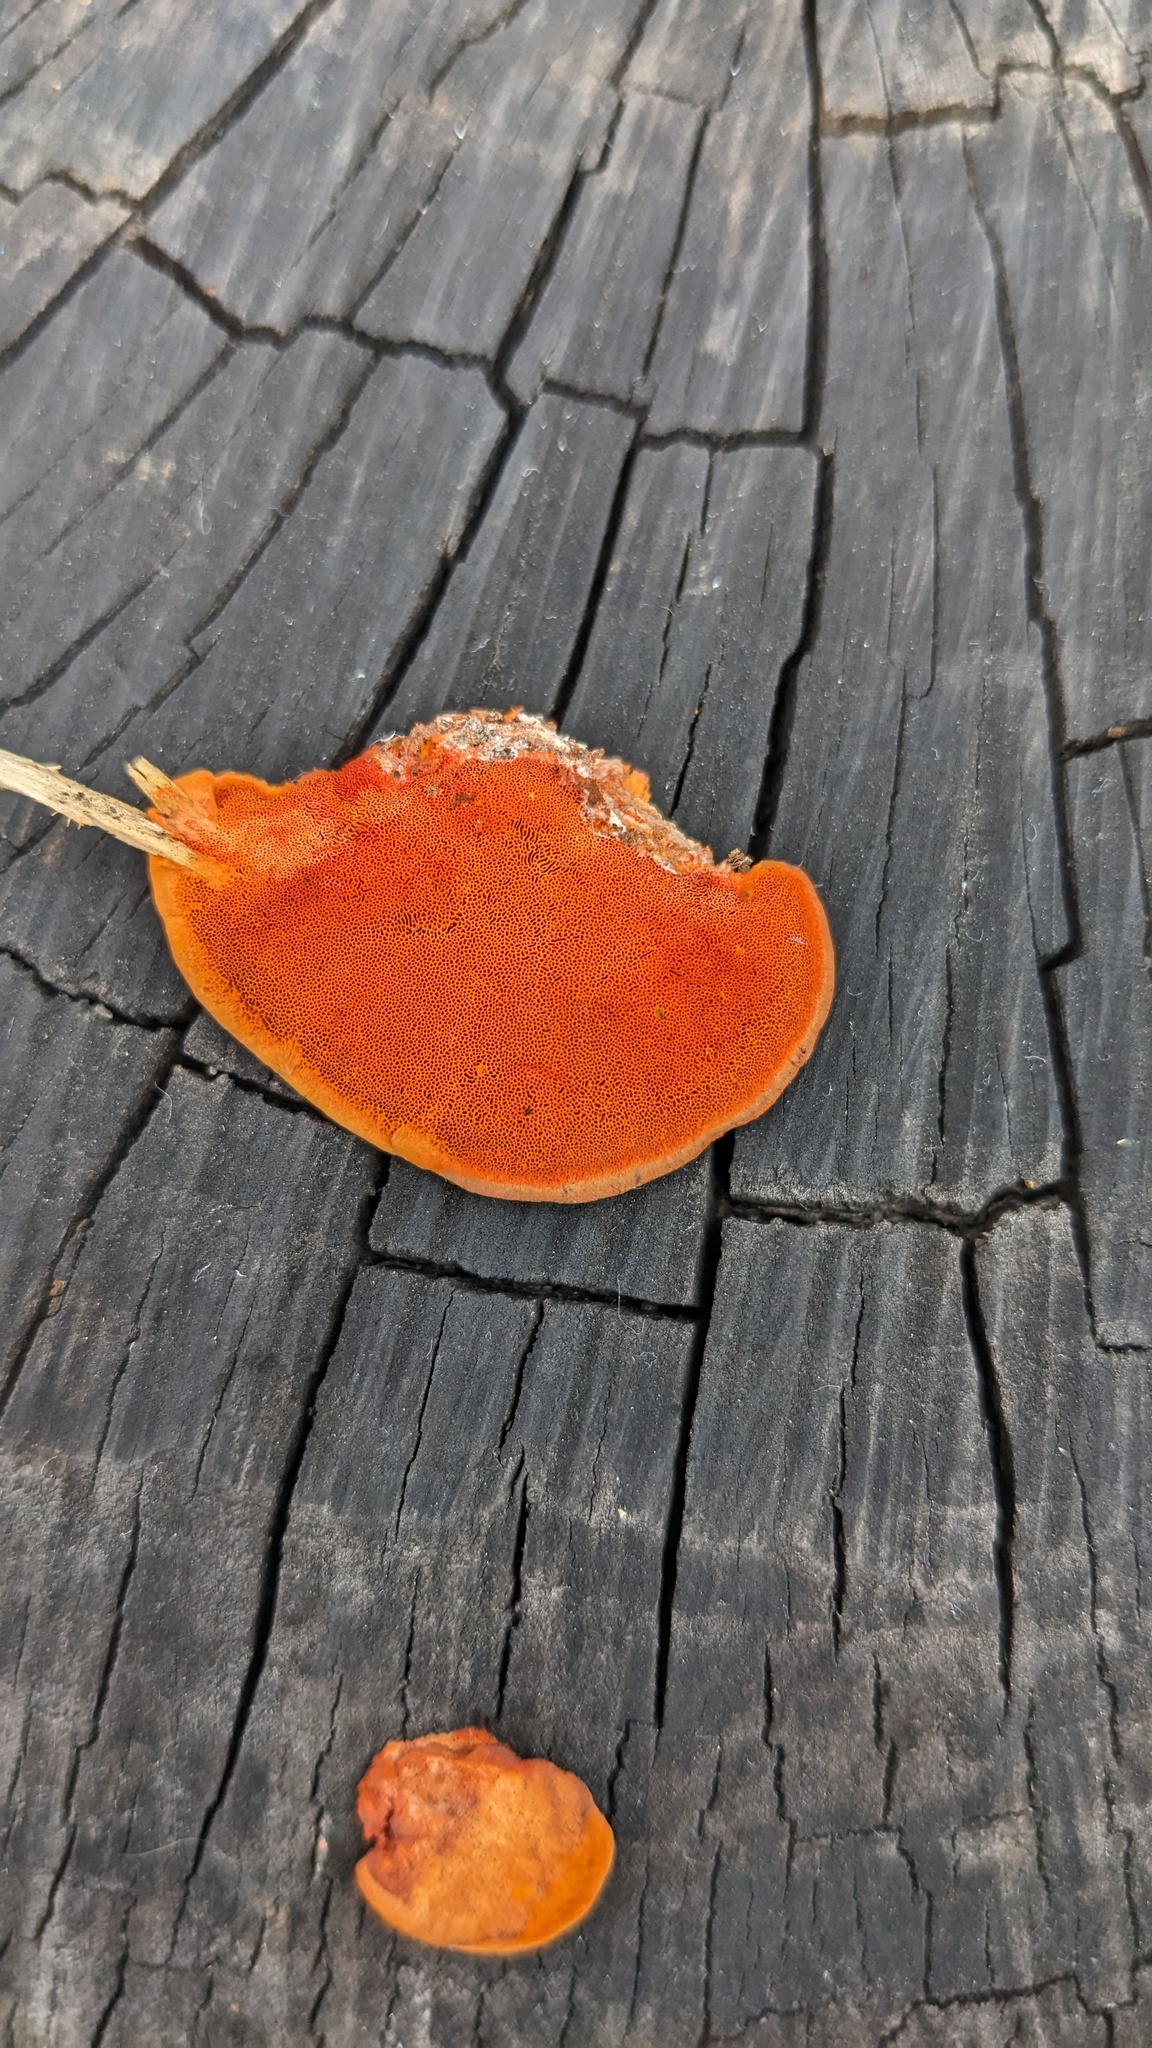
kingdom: Fungi
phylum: Basidiomycota
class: Agaricomycetes
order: Polyporales
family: Polyporaceae
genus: Trametes
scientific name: Trametes coccinea
